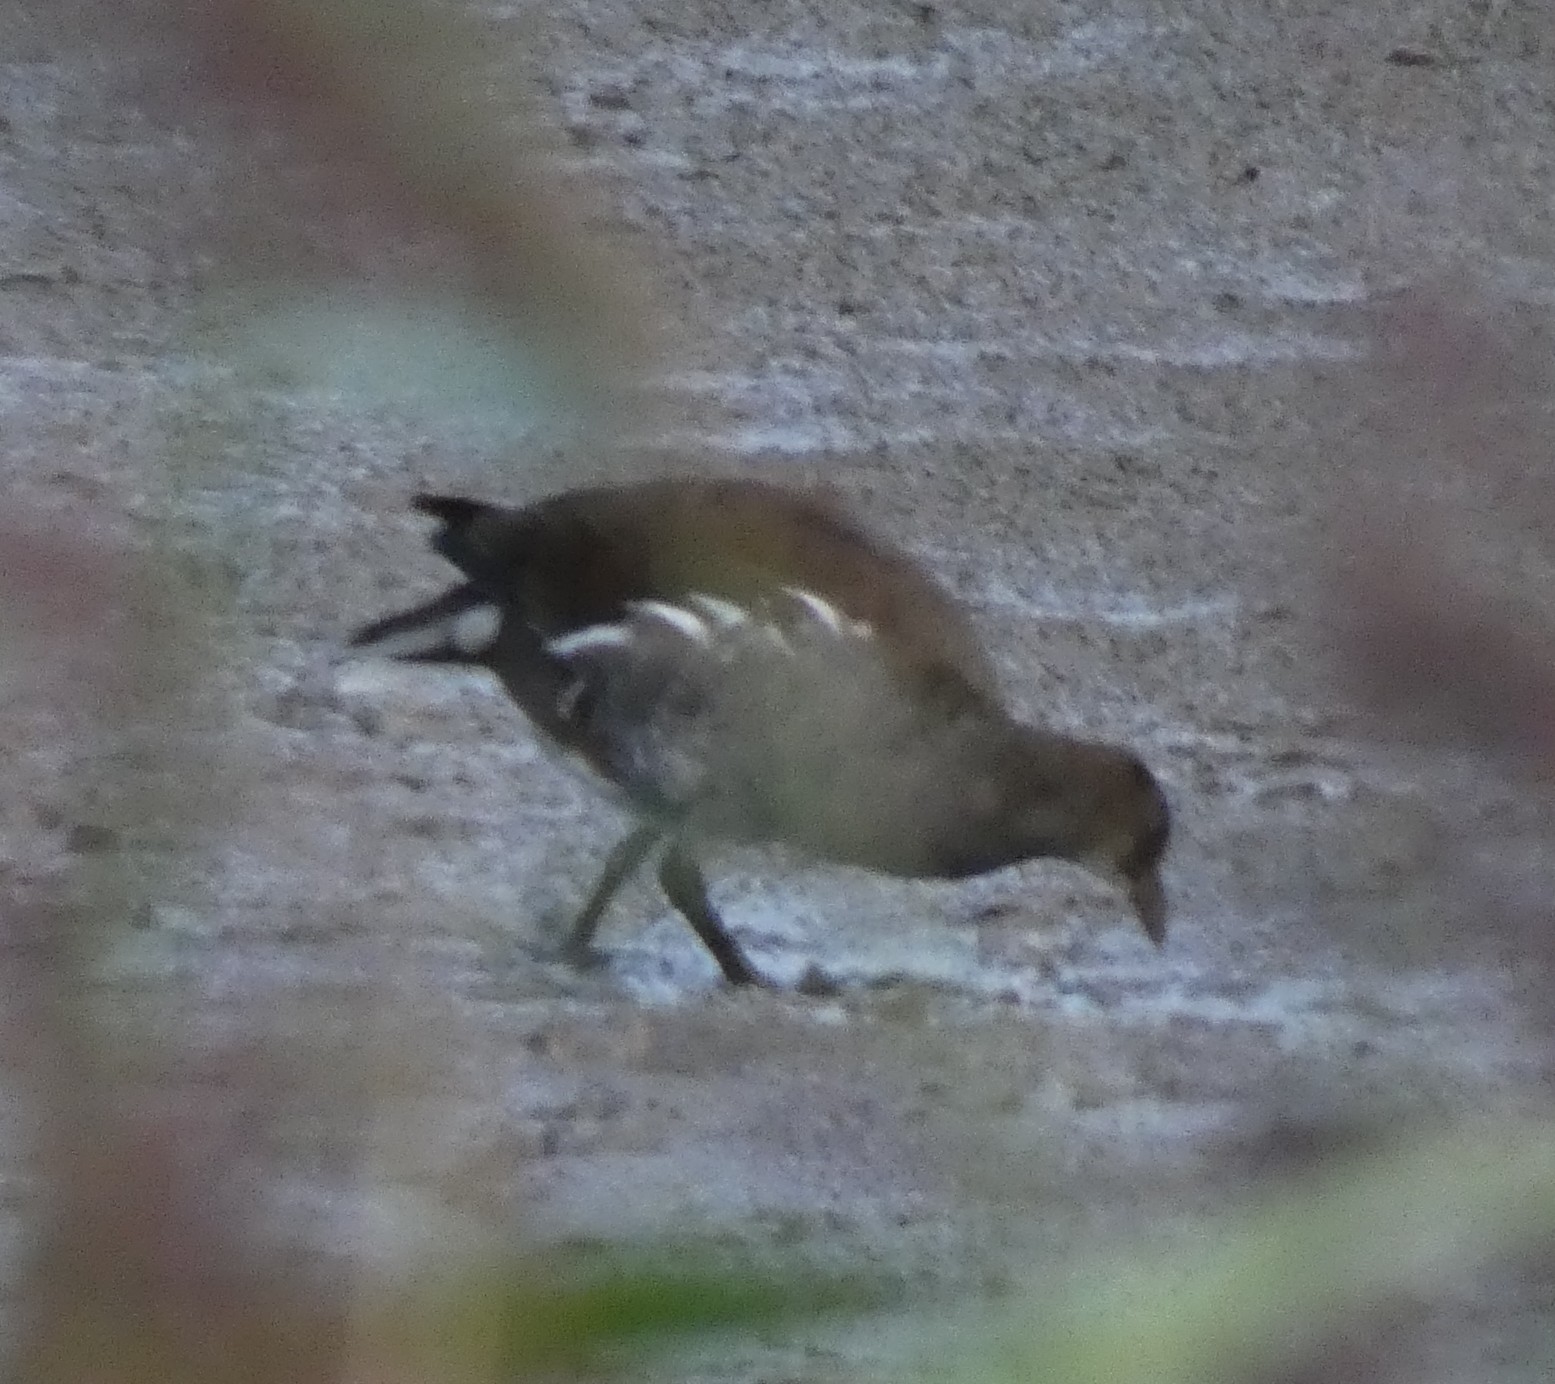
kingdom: Animalia
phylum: Chordata
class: Aves
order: Gruiformes
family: Rallidae
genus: Gallinula
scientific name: Gallinula chloropus
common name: Common moorhen
